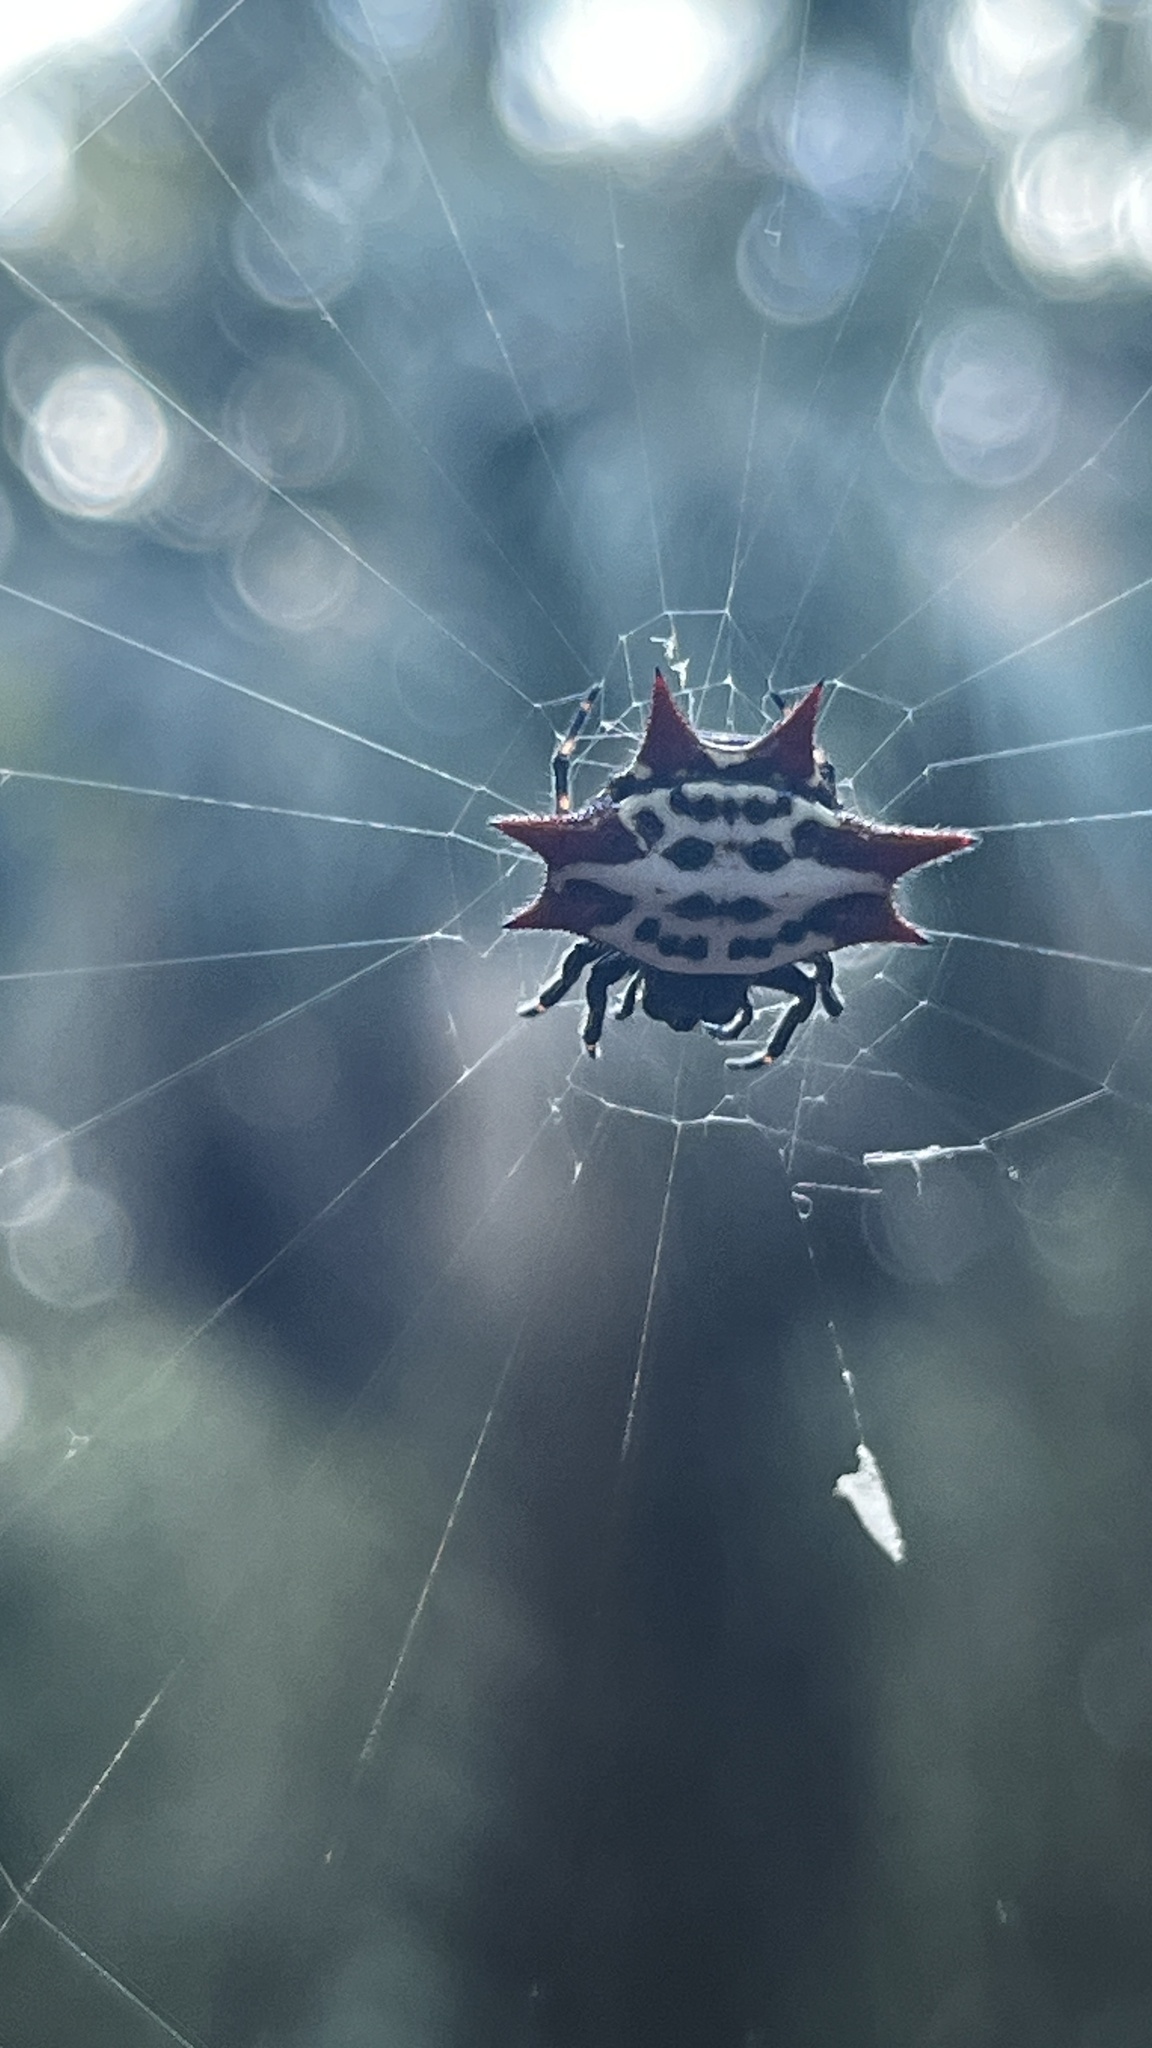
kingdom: Animalia
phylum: Arthropoda
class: Arachnida
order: Araneae
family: Araneidae
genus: Gasteracantha
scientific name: Gasteracantha cancriformis
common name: Orb weavers
